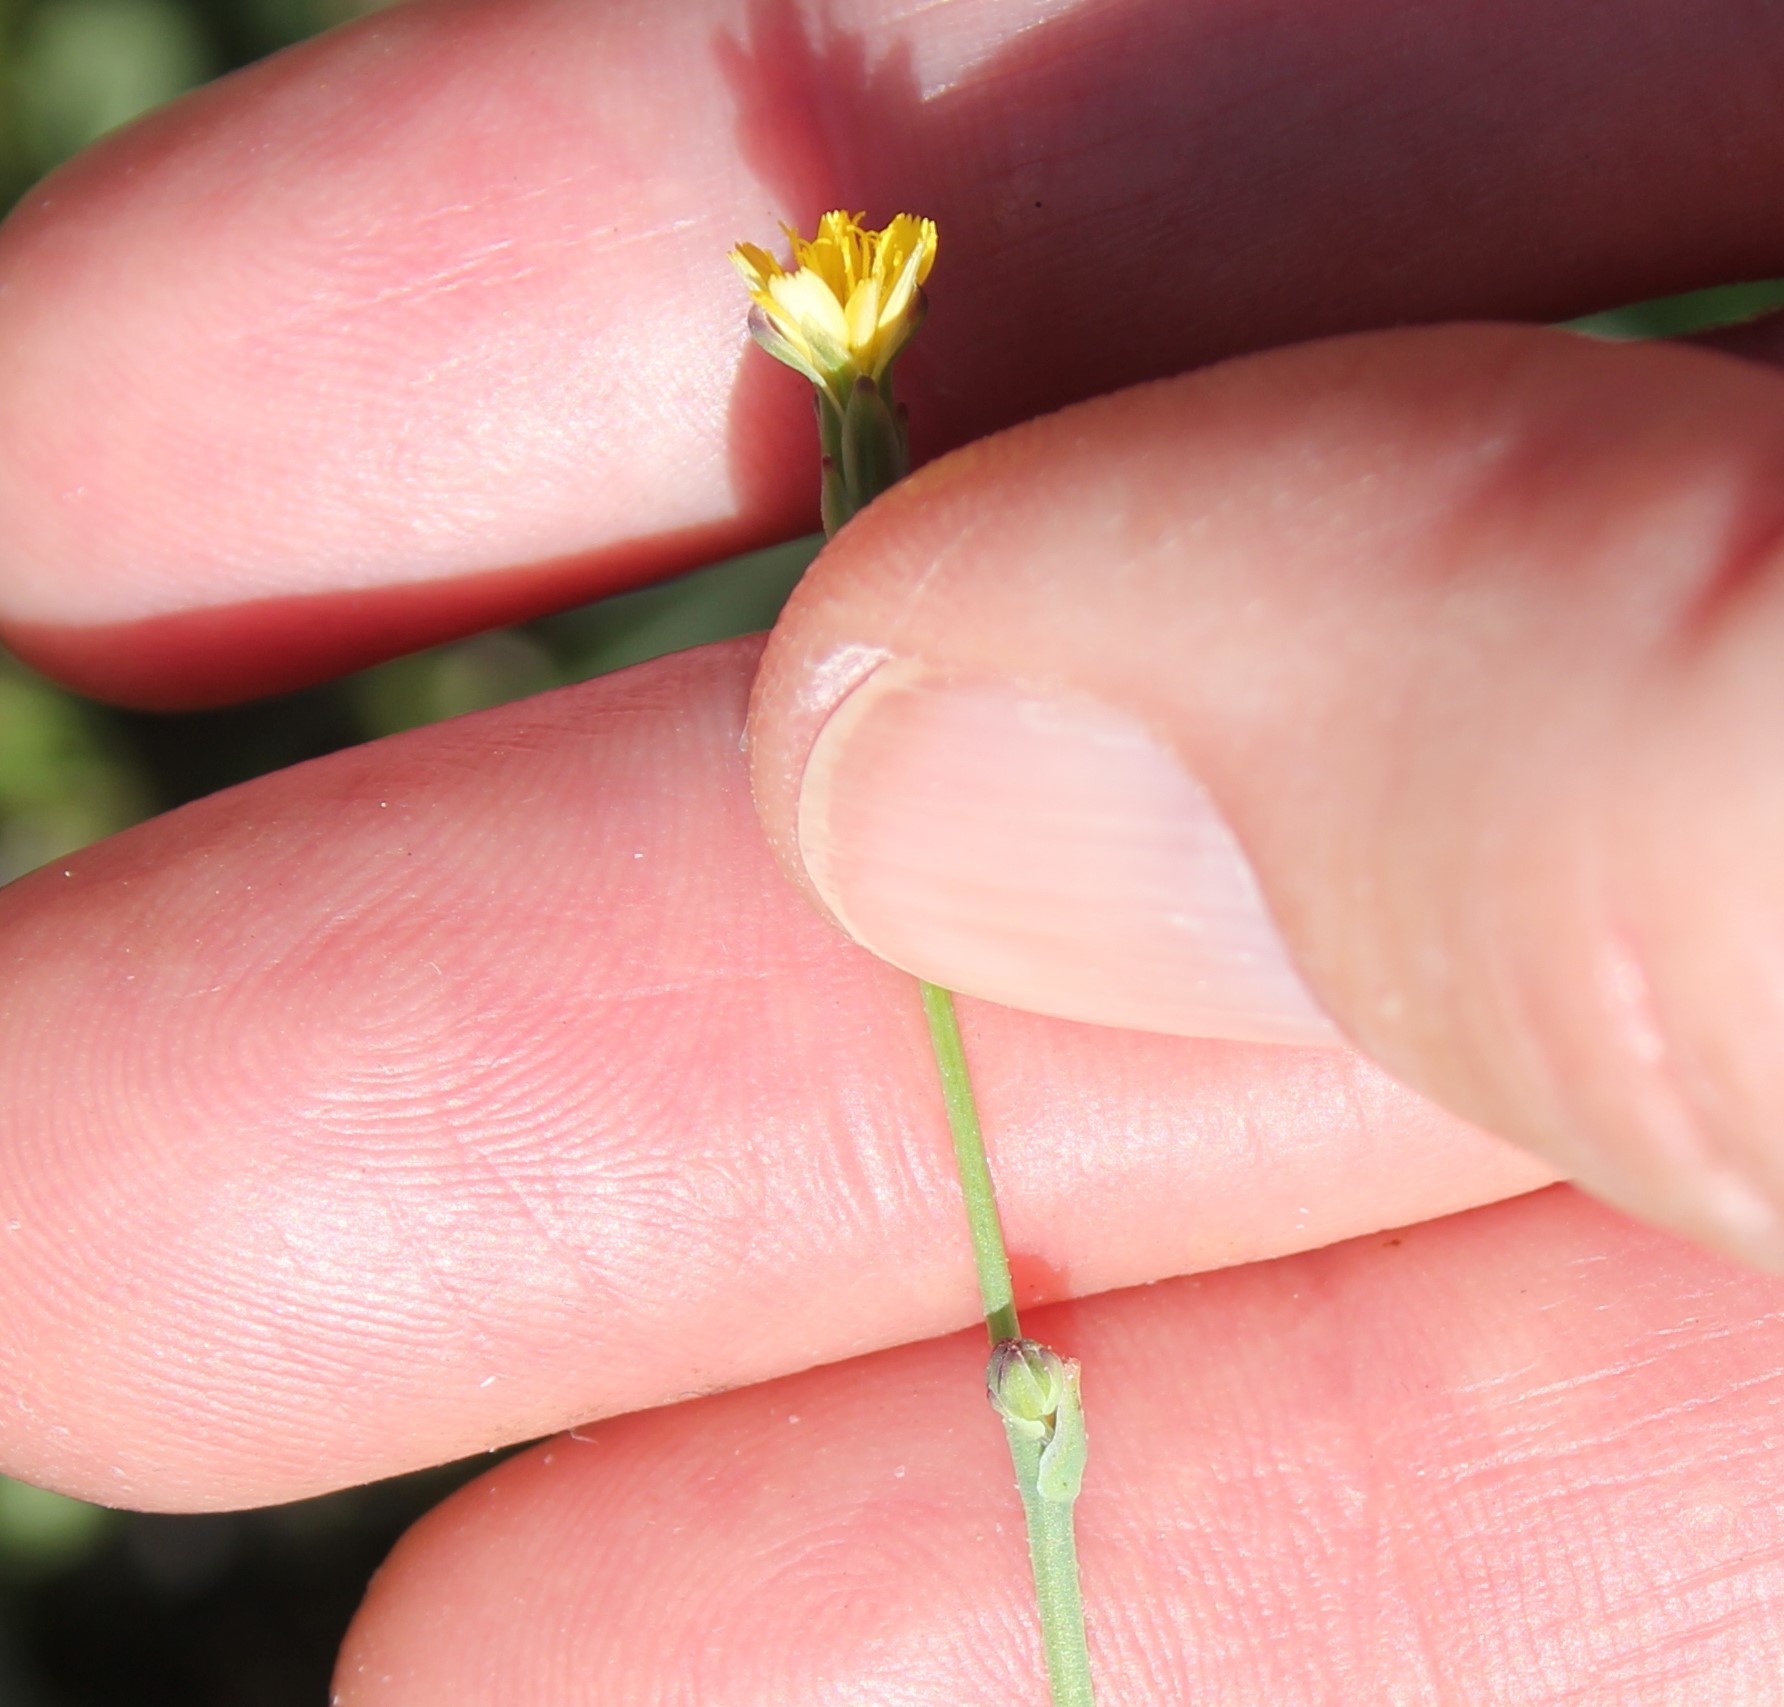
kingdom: Plantae
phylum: Tracheophyta
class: Magnoliopsida
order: Asterales
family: Asteraceae
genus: Hypochaeris
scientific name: Hypochaeris glabra
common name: Smooth catsear
